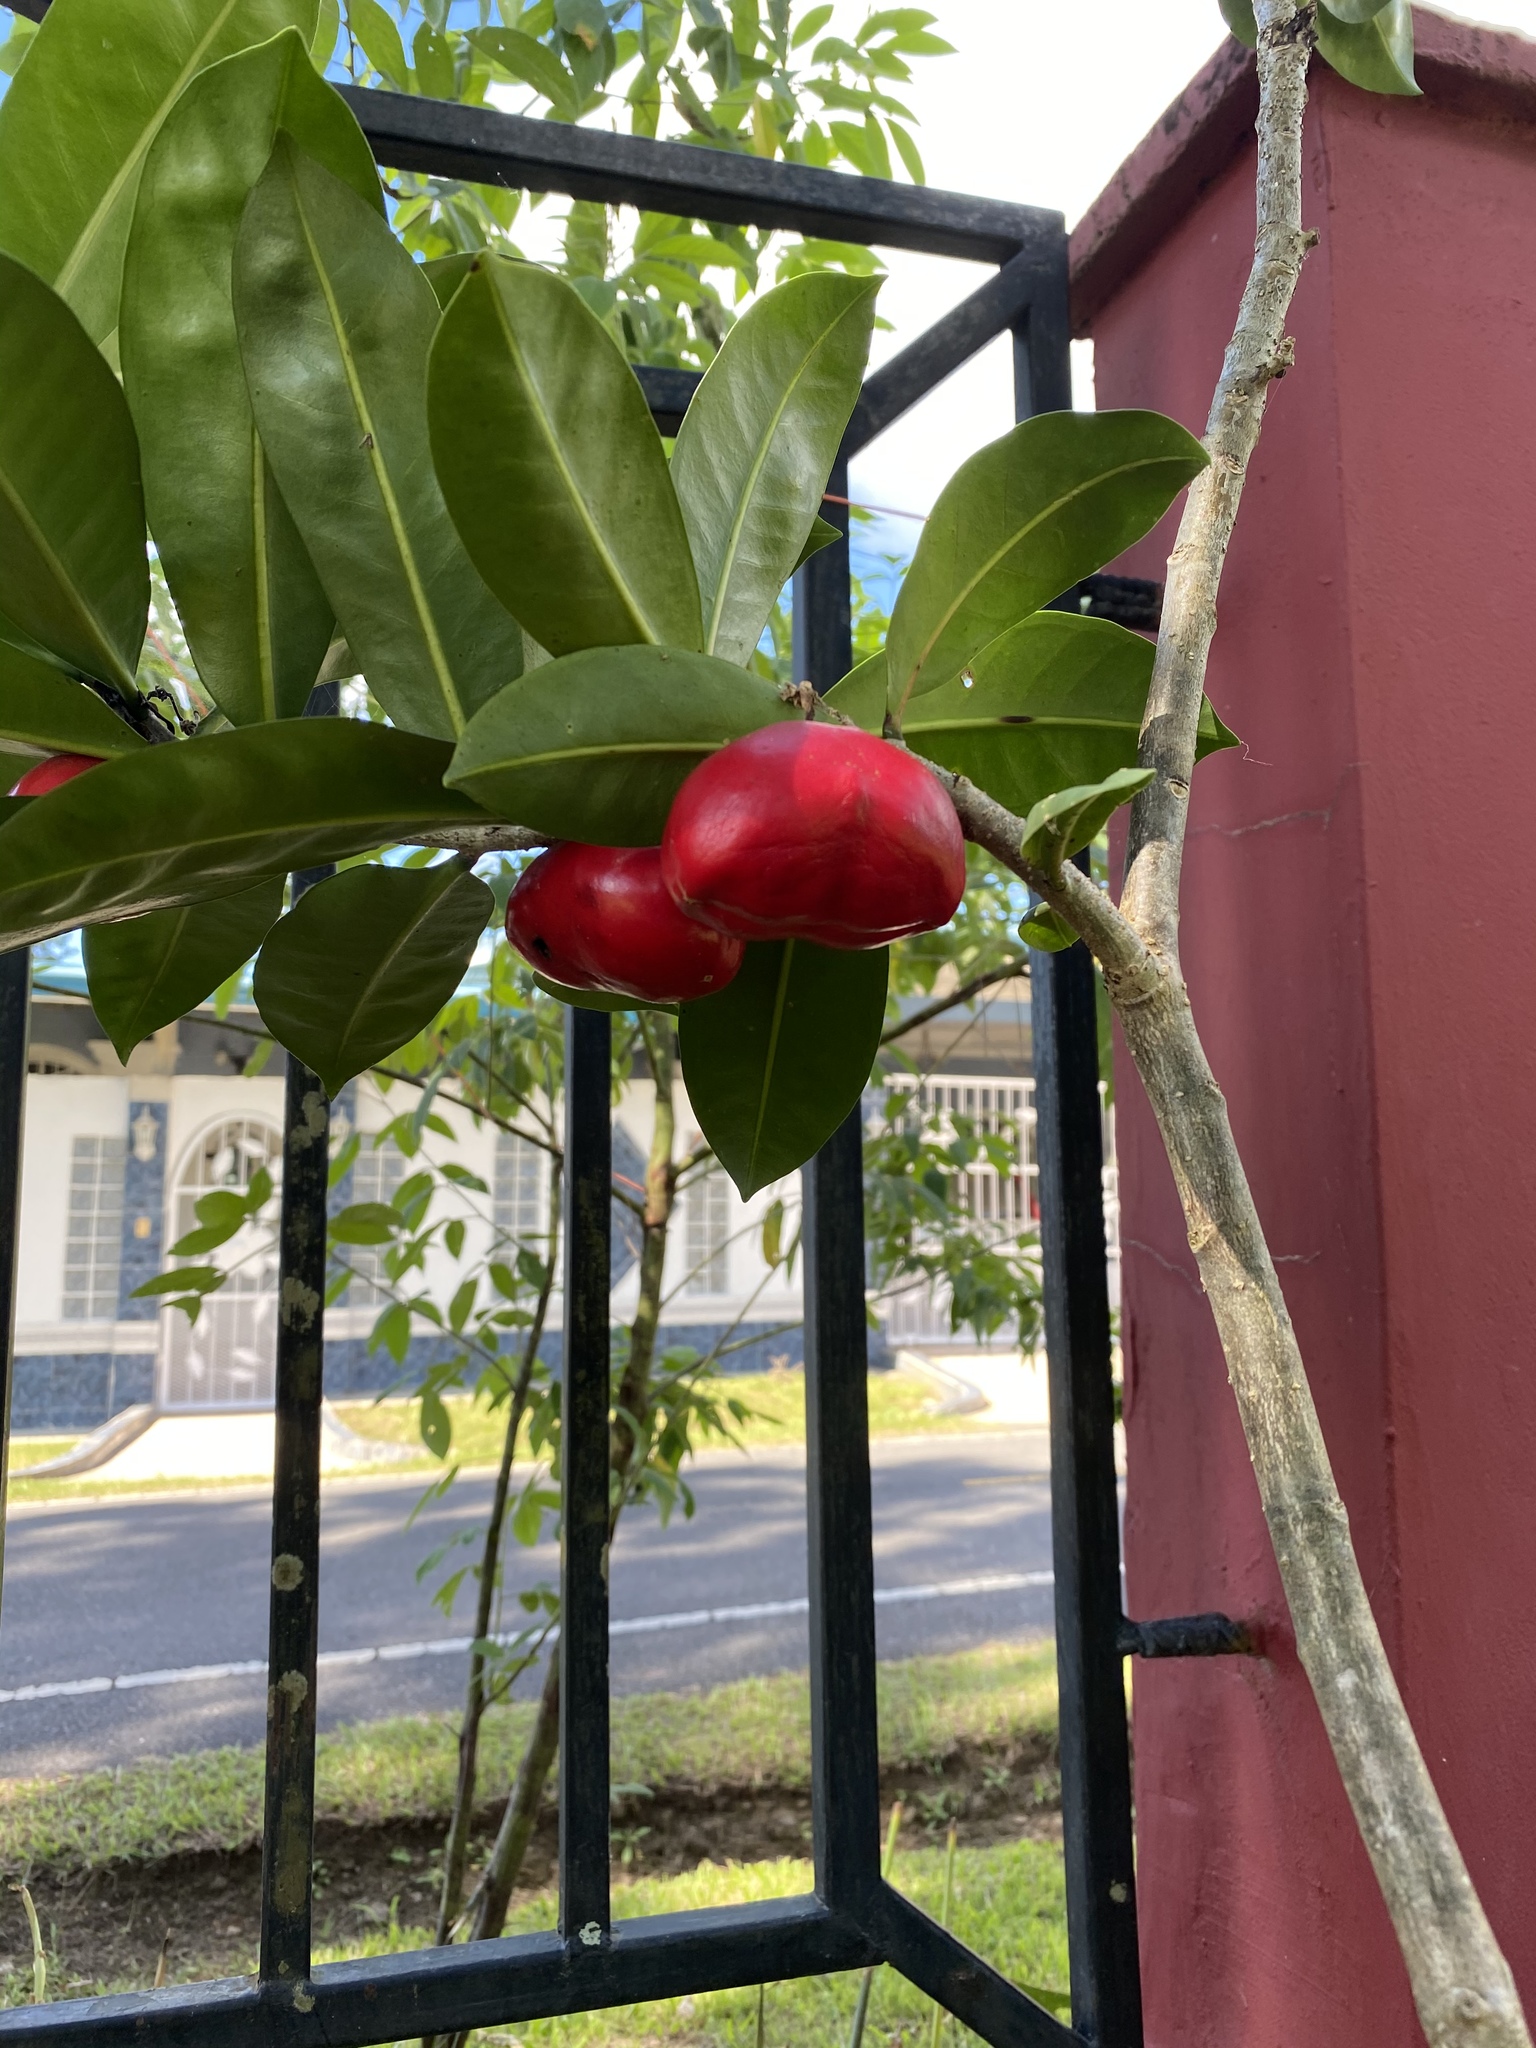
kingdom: Plantae
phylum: Tracheophyta
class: Magnoliopsida
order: Gentianales
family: Apocynaceae
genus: Thevetia
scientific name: Thevetia ahouai
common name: Broadleaf thevetia
